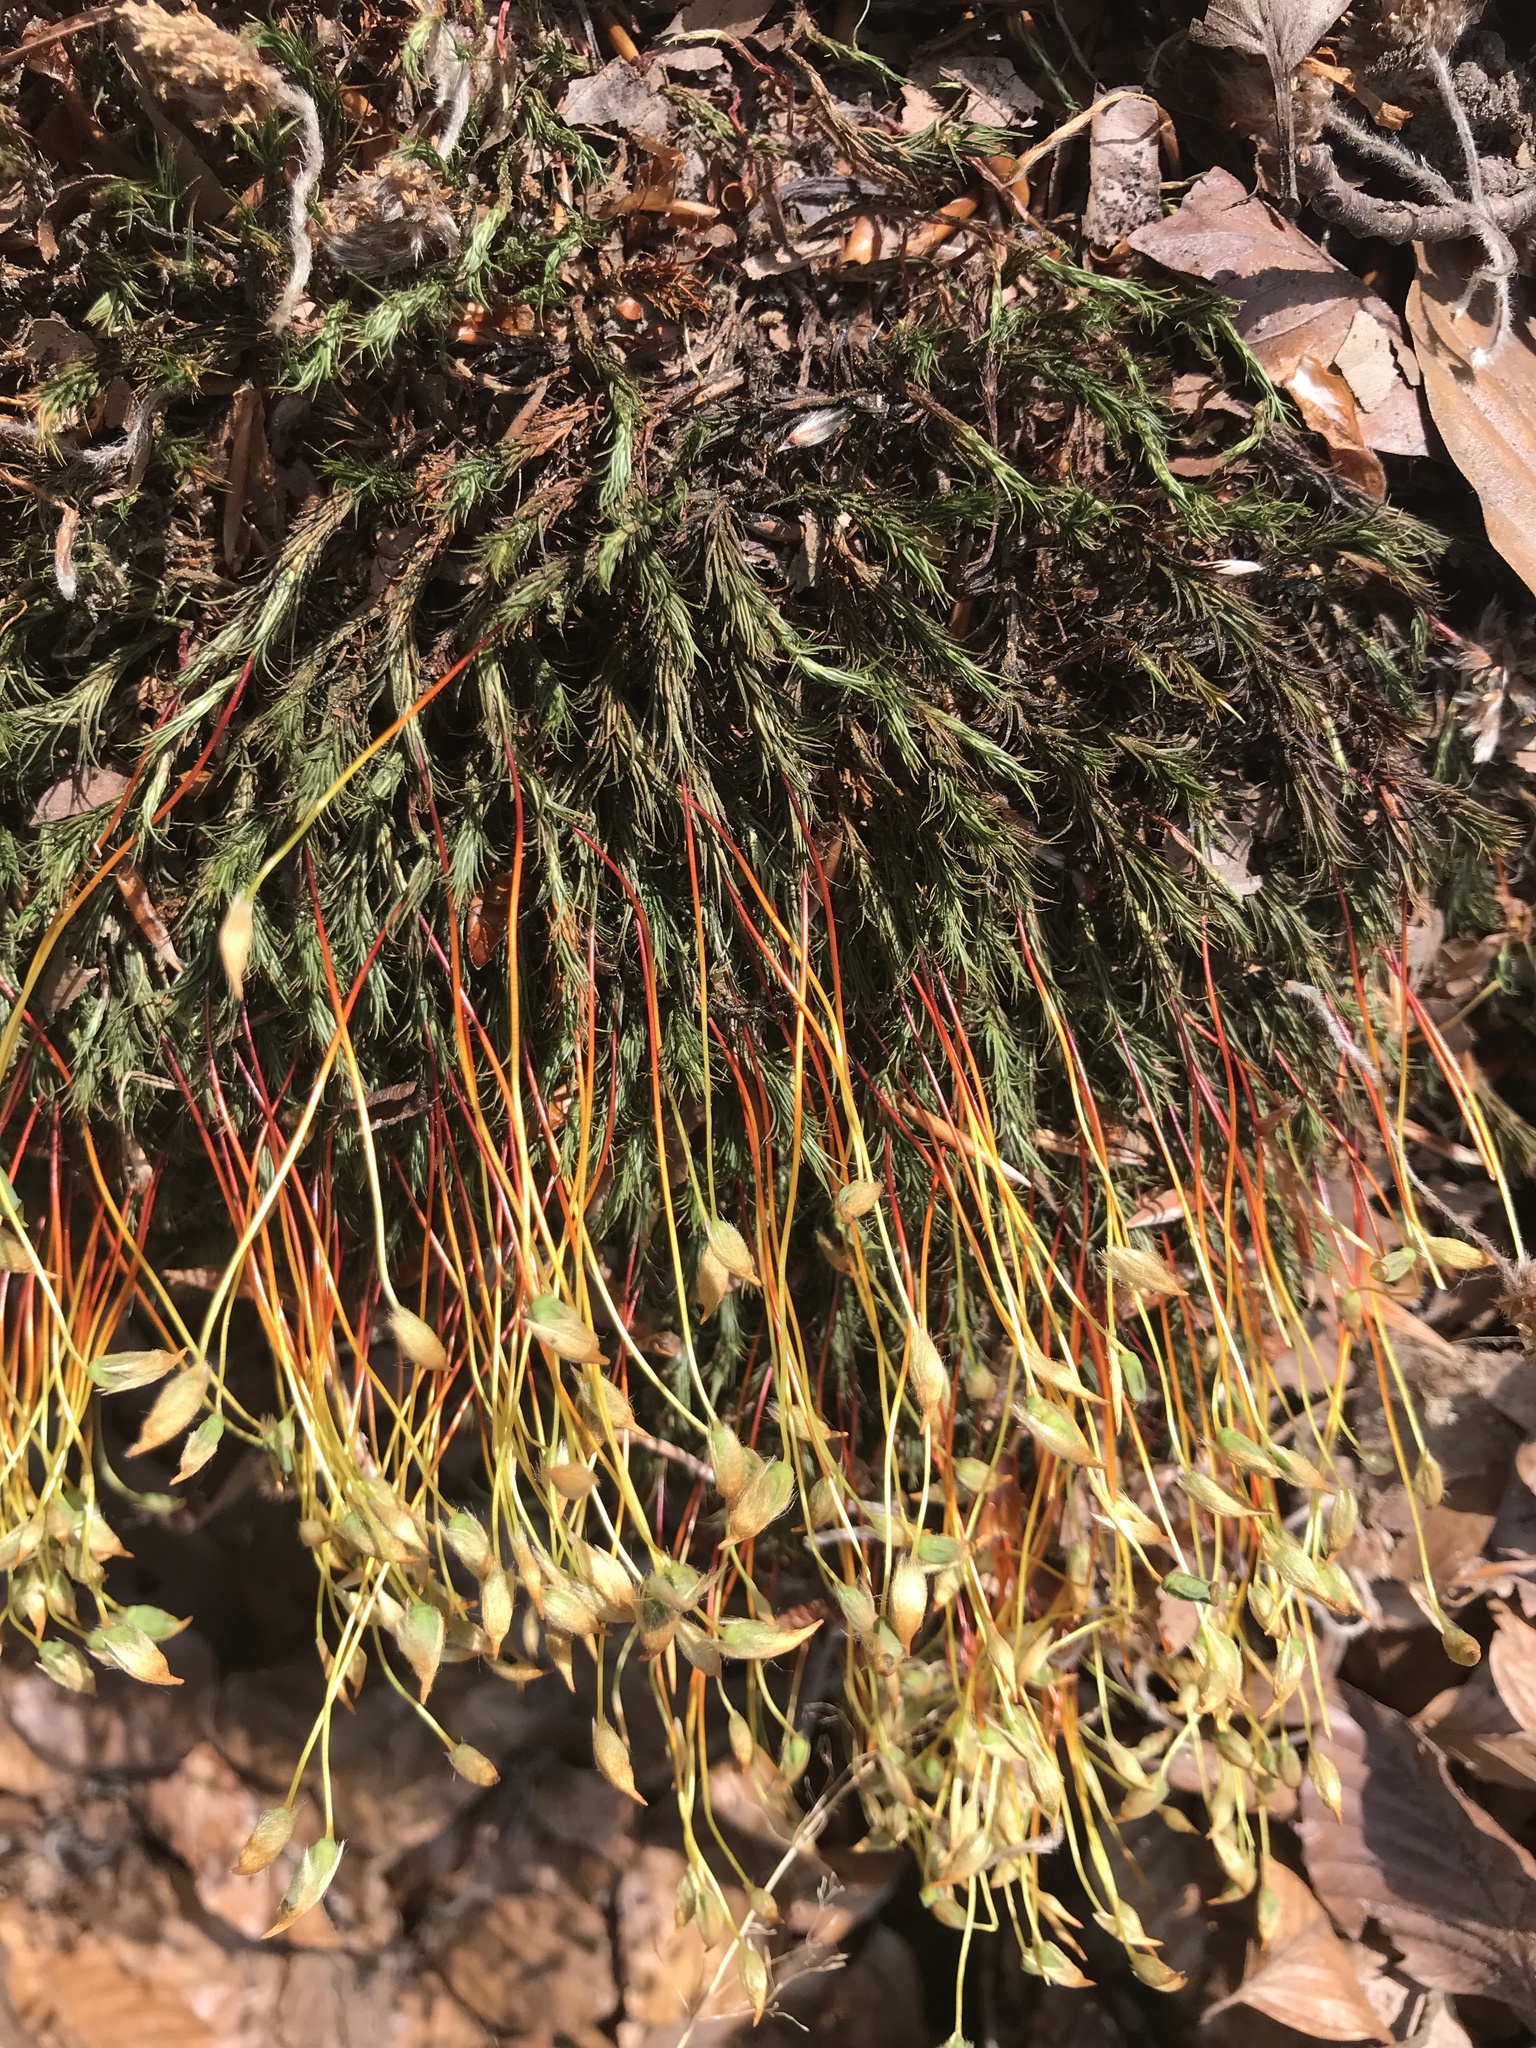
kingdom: Plantae
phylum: Bryophyta
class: Polytrichopsida
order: Polytrichales
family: Polytrichaceae
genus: Polytrichum
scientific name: Polytrichum formosum
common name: Bank haircap moss
